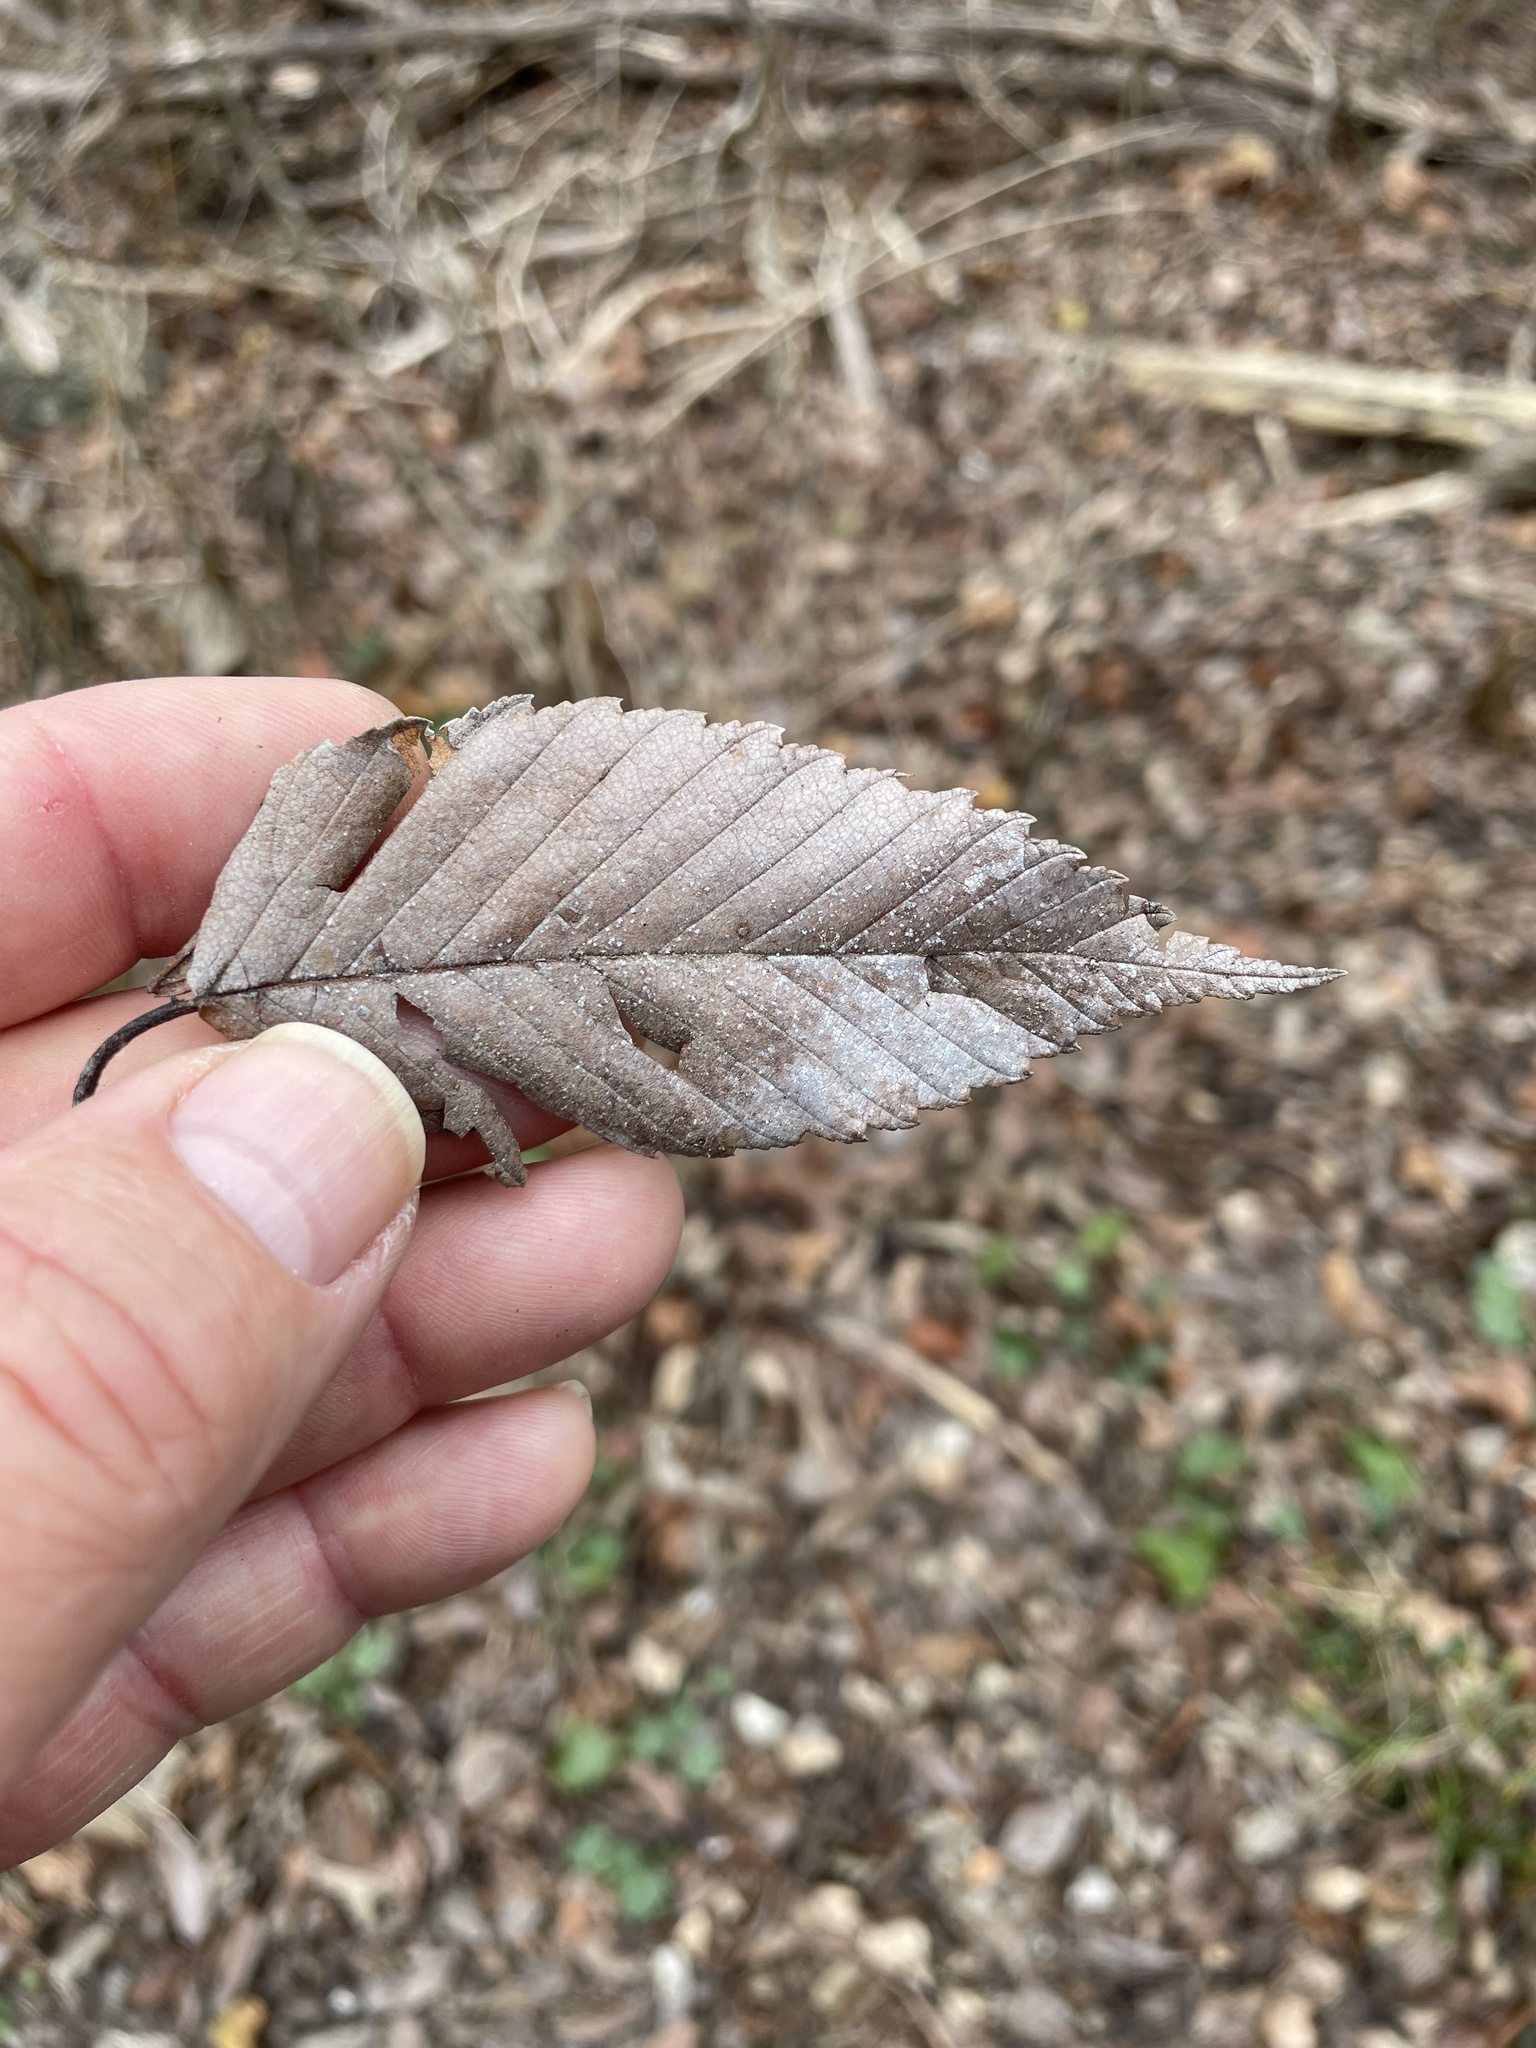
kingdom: Plantae
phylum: Tracheophyta
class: Magnoliopsida
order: Rosales
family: Ulmaceae
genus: Ulmus
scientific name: Ulmus americana
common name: American elm
